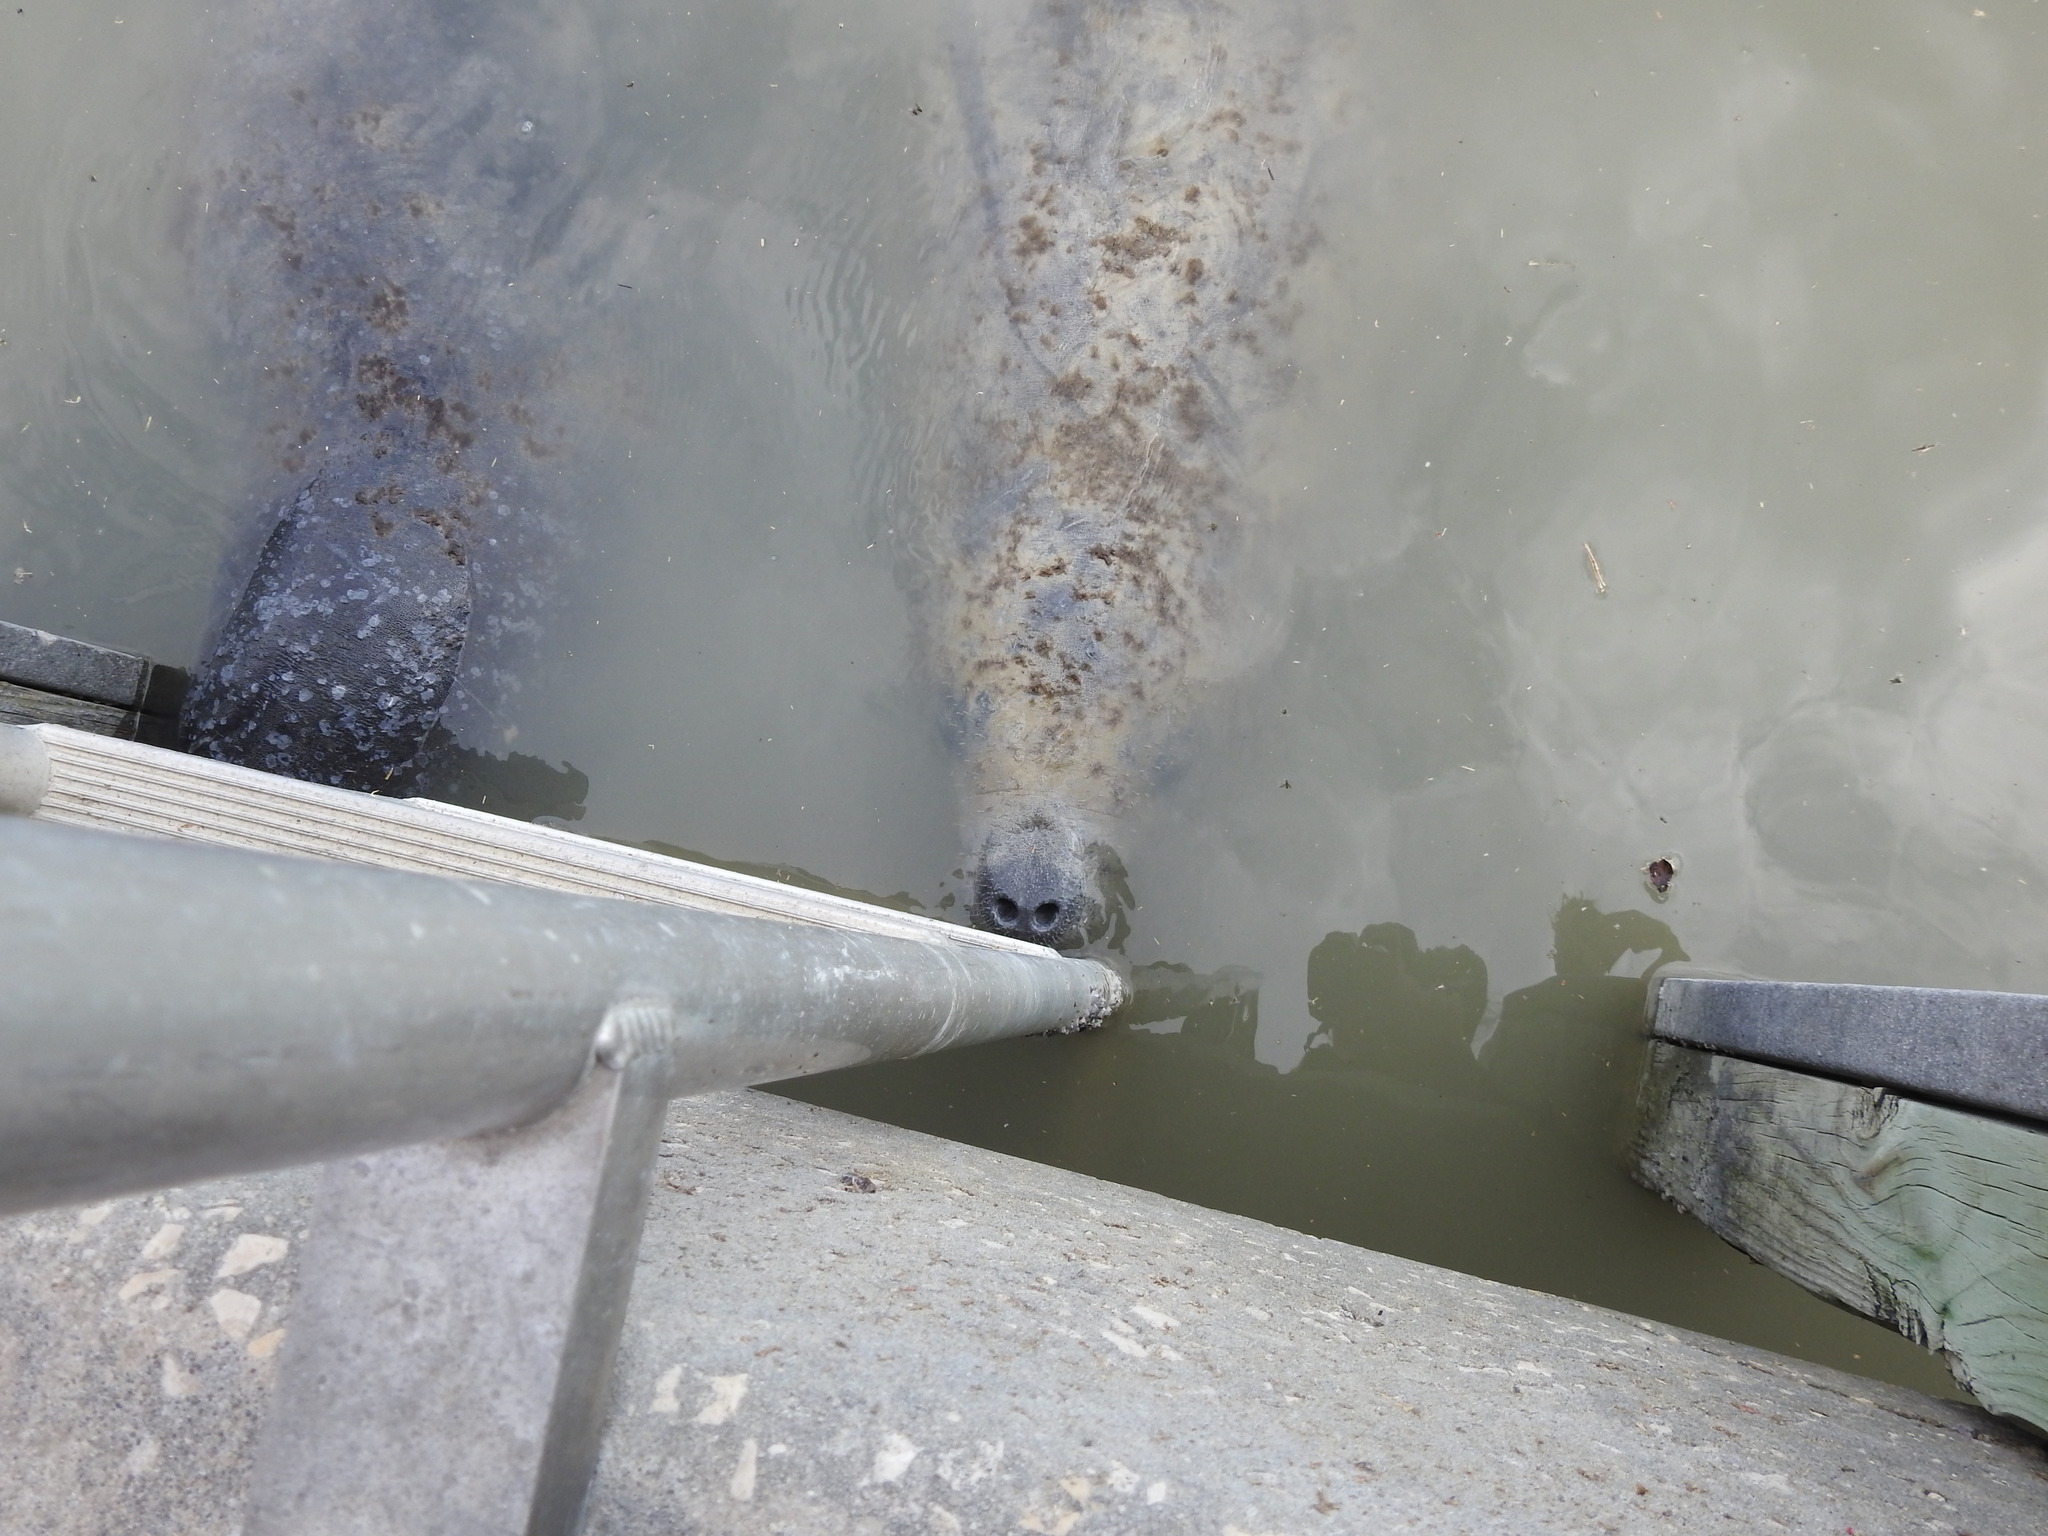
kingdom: Animalia
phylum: Chordata
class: Mammalia
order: Sirenia
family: Trichechidae
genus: Trichechus
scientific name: Trichechus manatus
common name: West indian manatee
